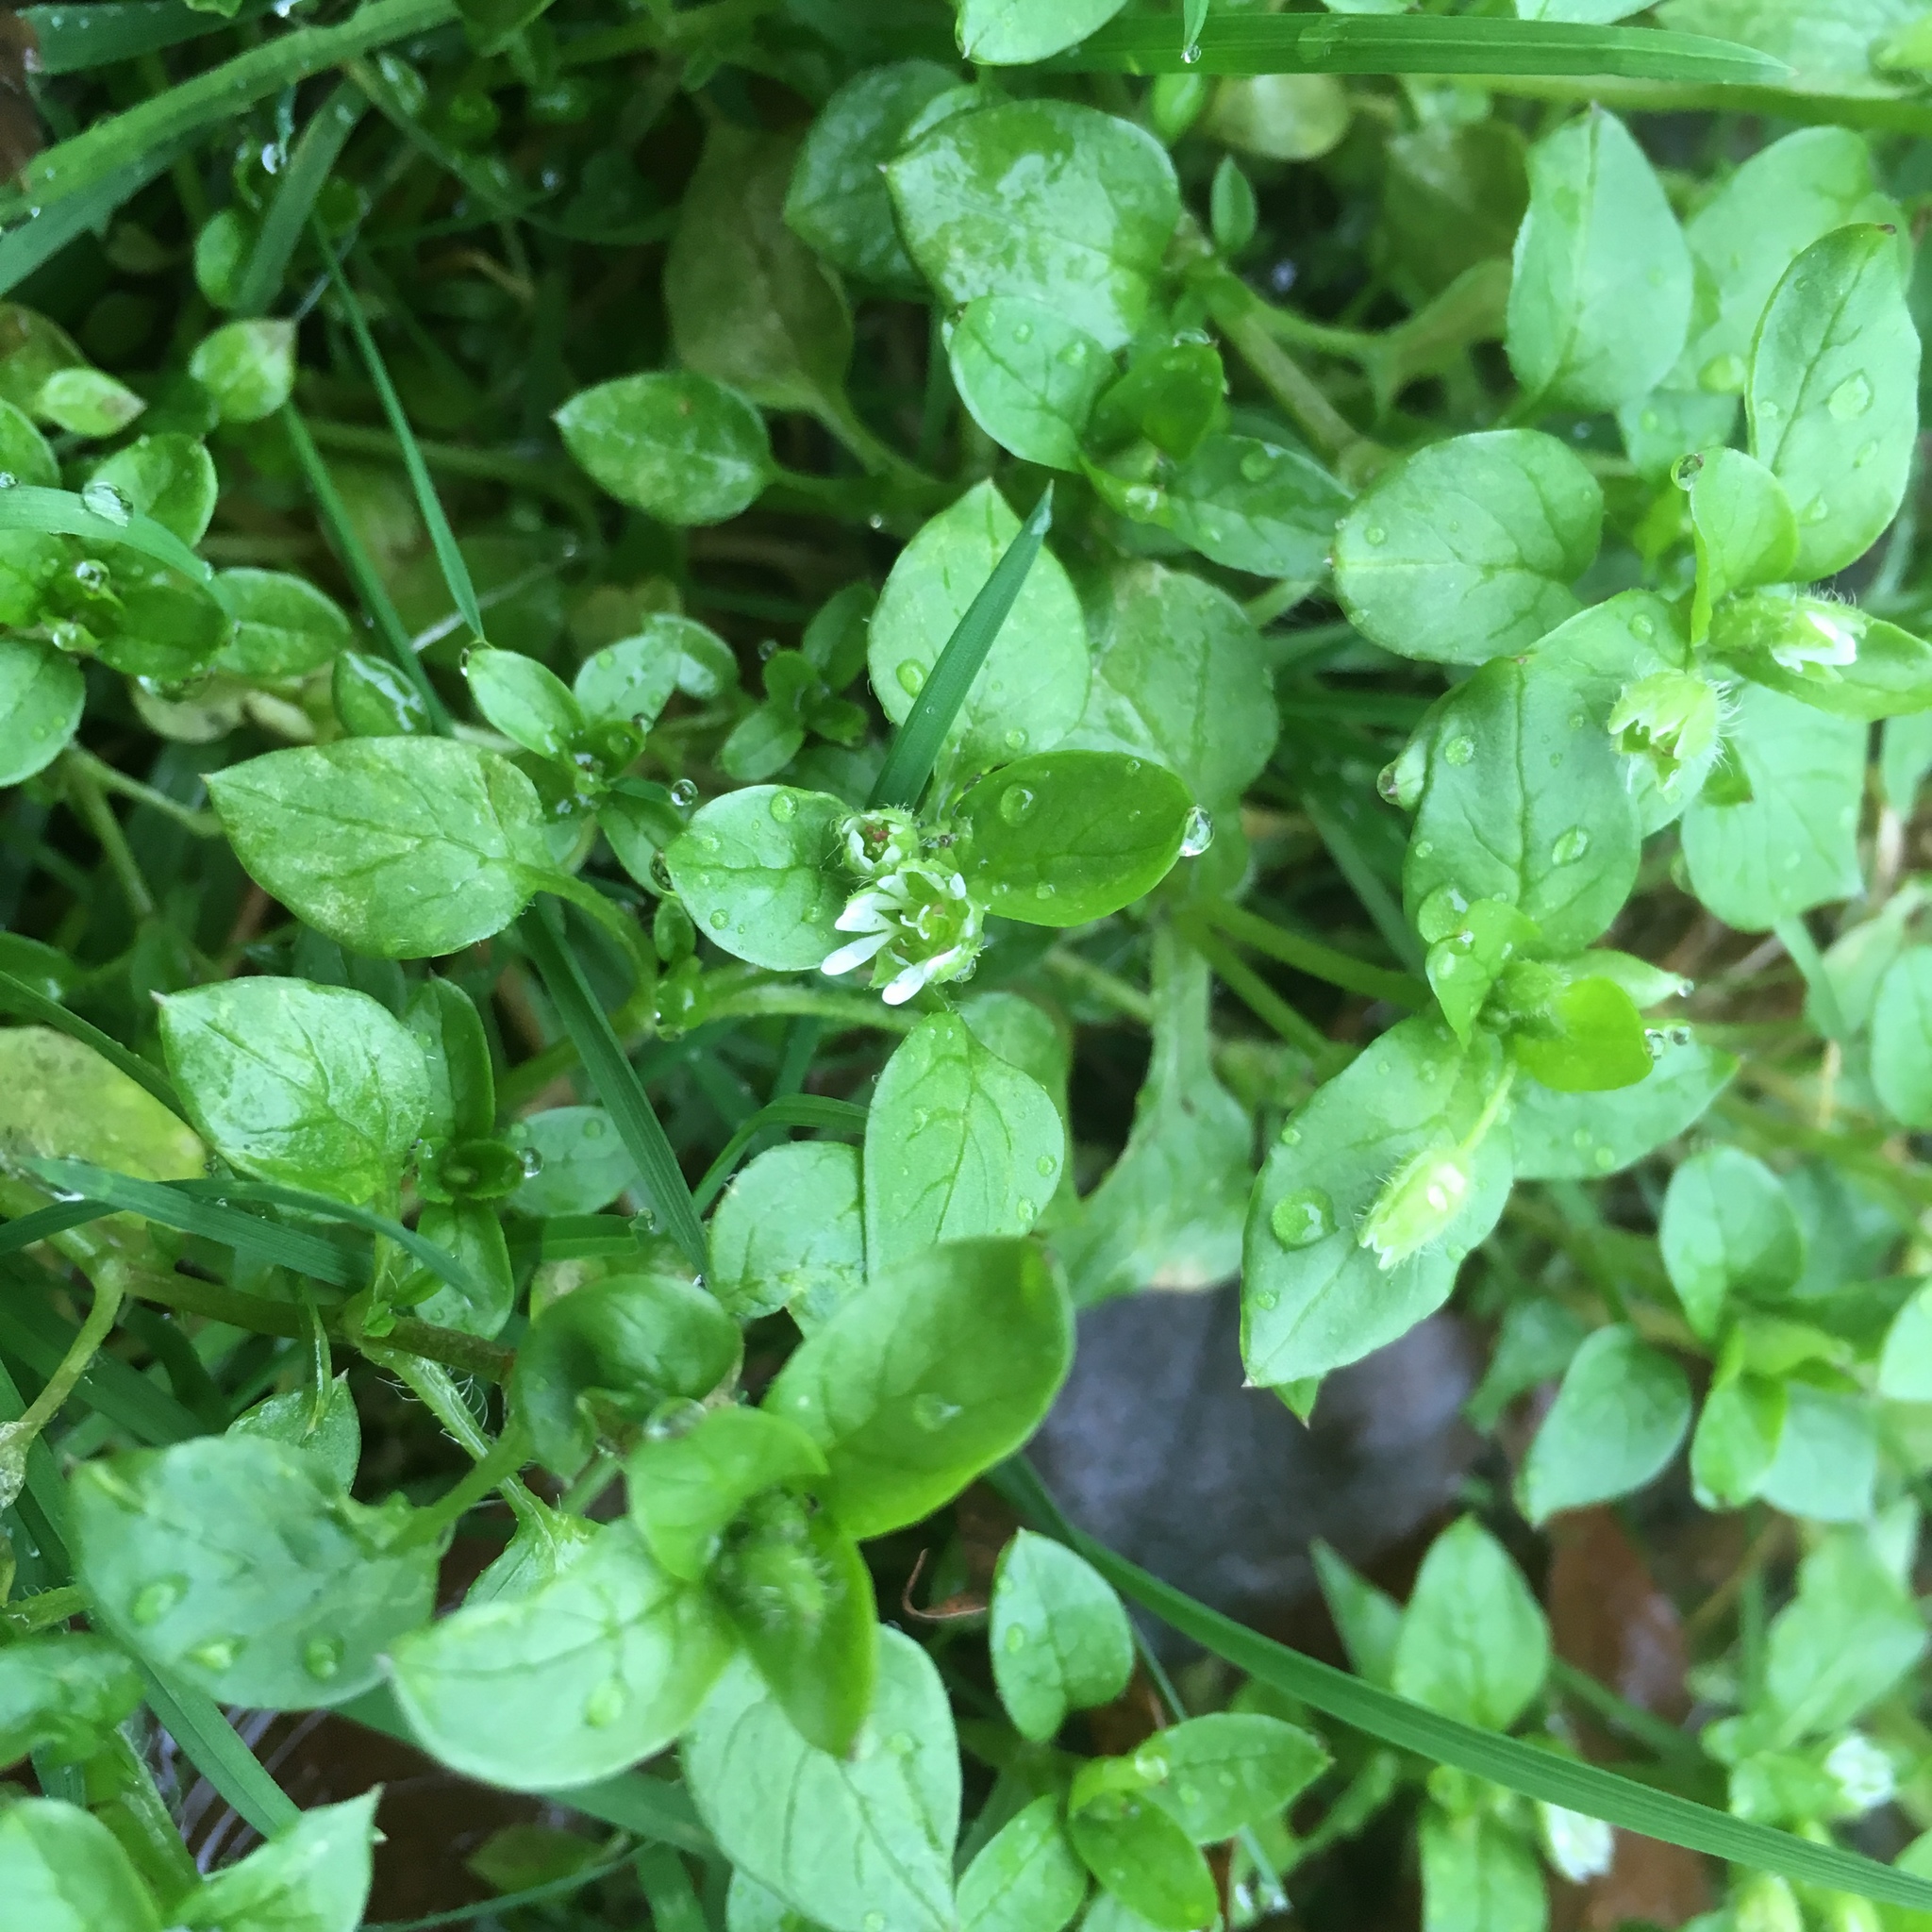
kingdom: Plantae
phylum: Tracheophyta
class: Magnoliopsida
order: Caryophyllales
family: Caryophyllaceae
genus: Stellaria
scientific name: Stellaria media
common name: Common chickweed
